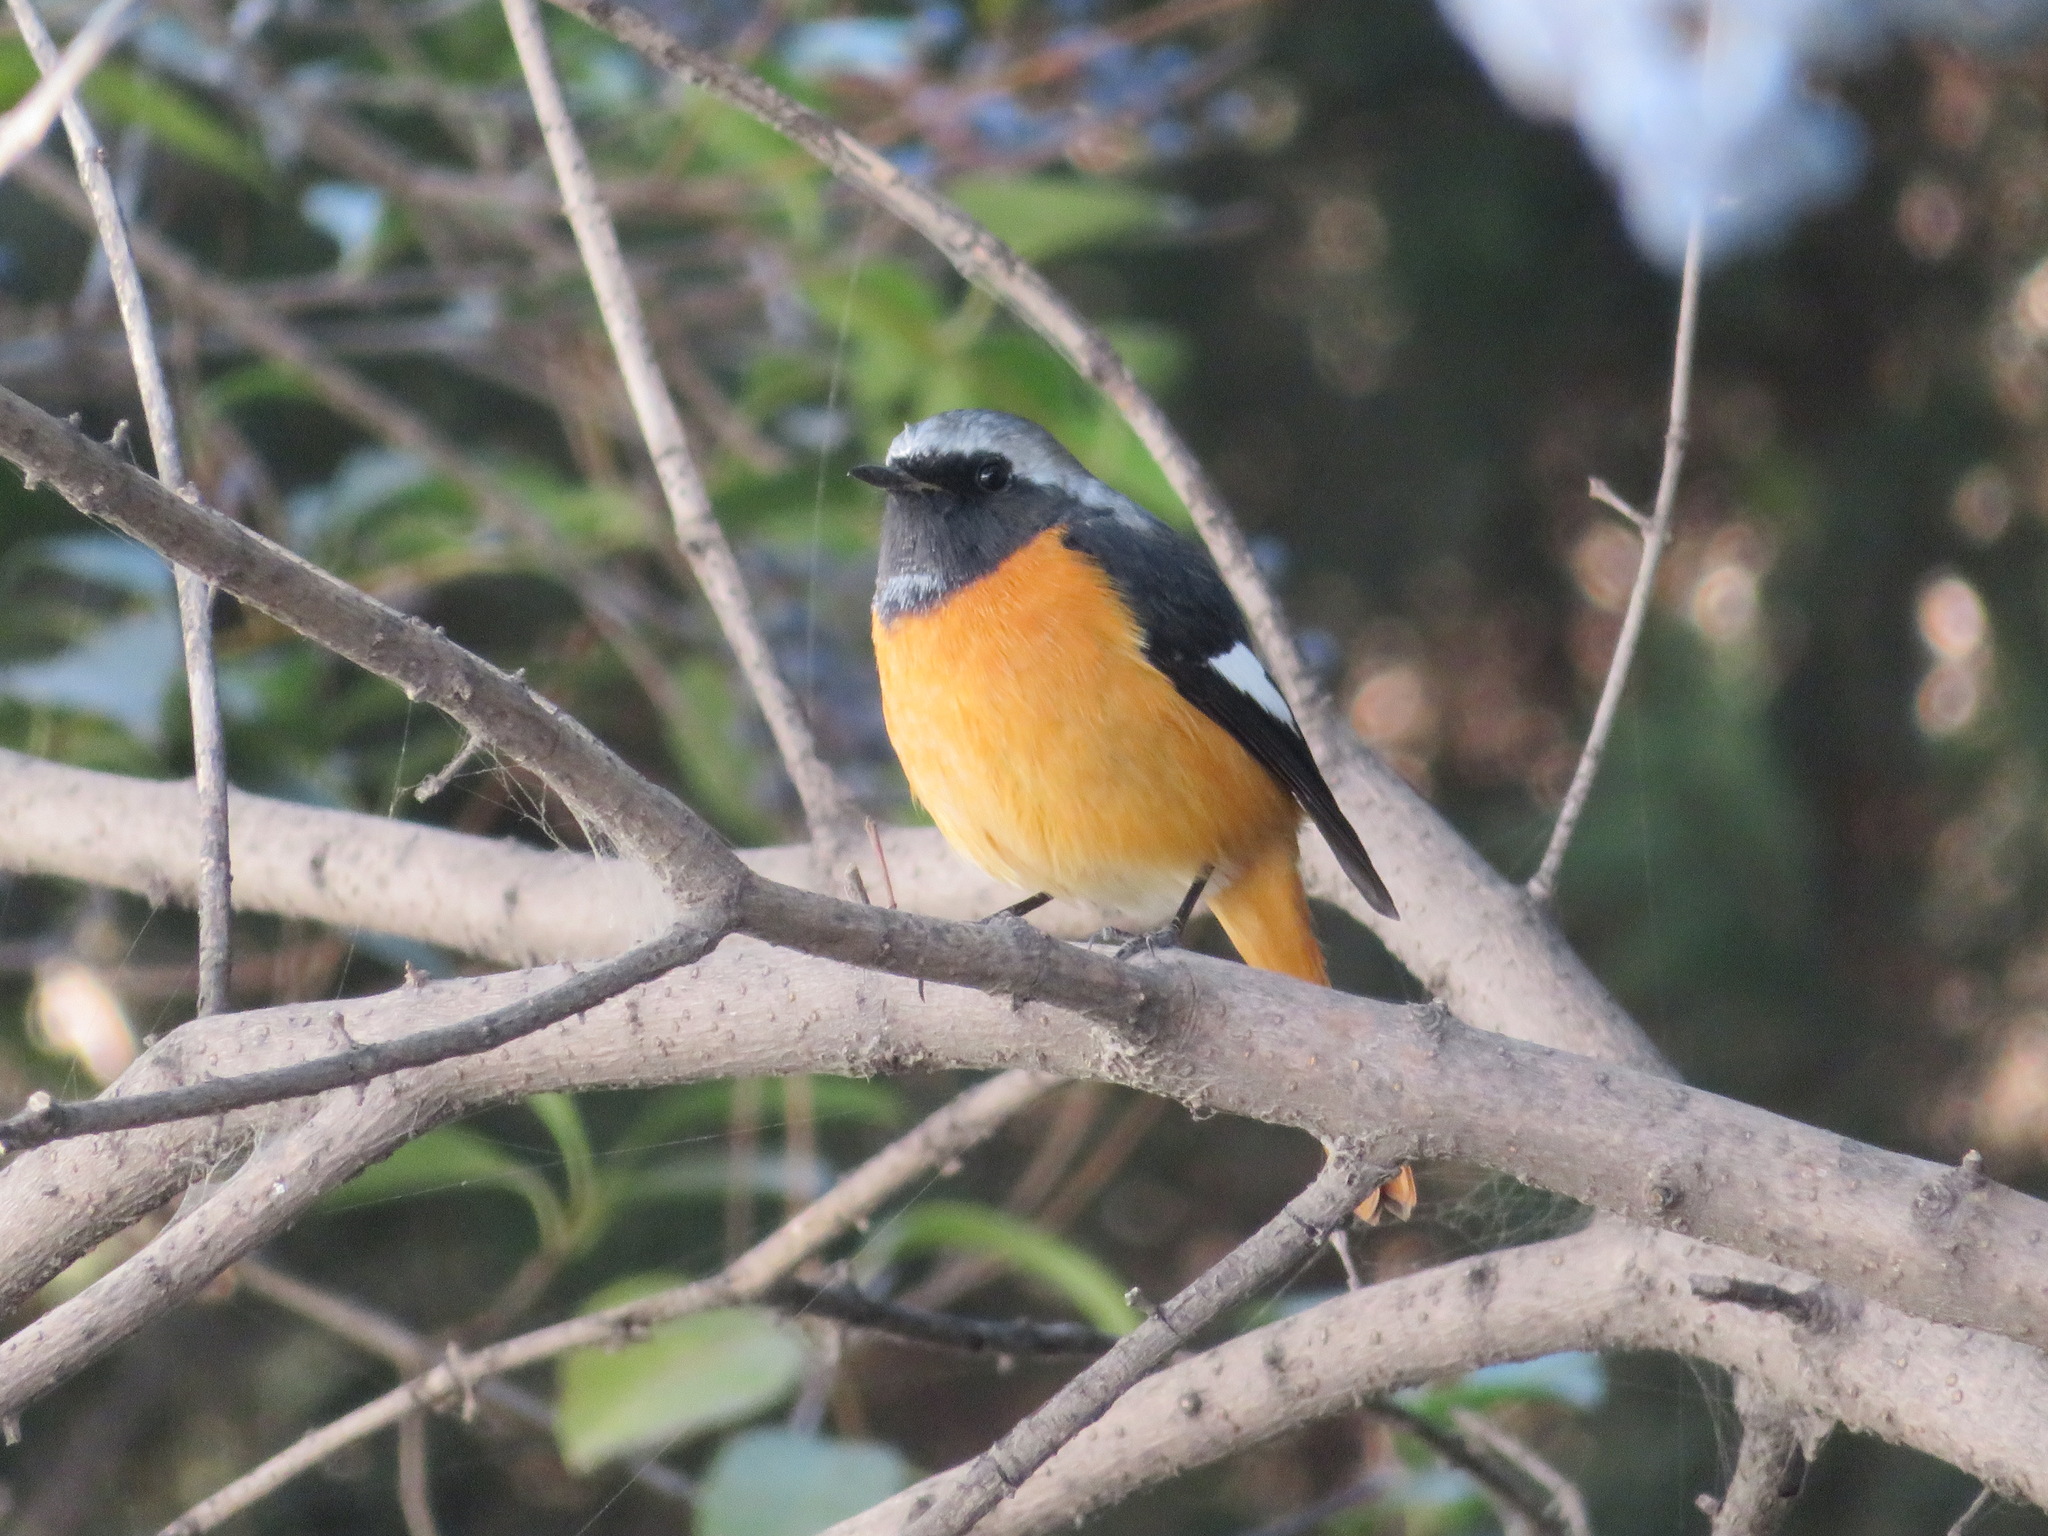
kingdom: Animalia
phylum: Chordata
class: Aves
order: Passeriformes
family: Muscicapidae
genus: Phoenicurus
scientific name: Phoenicurus auroreus
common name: Daurian redstart
